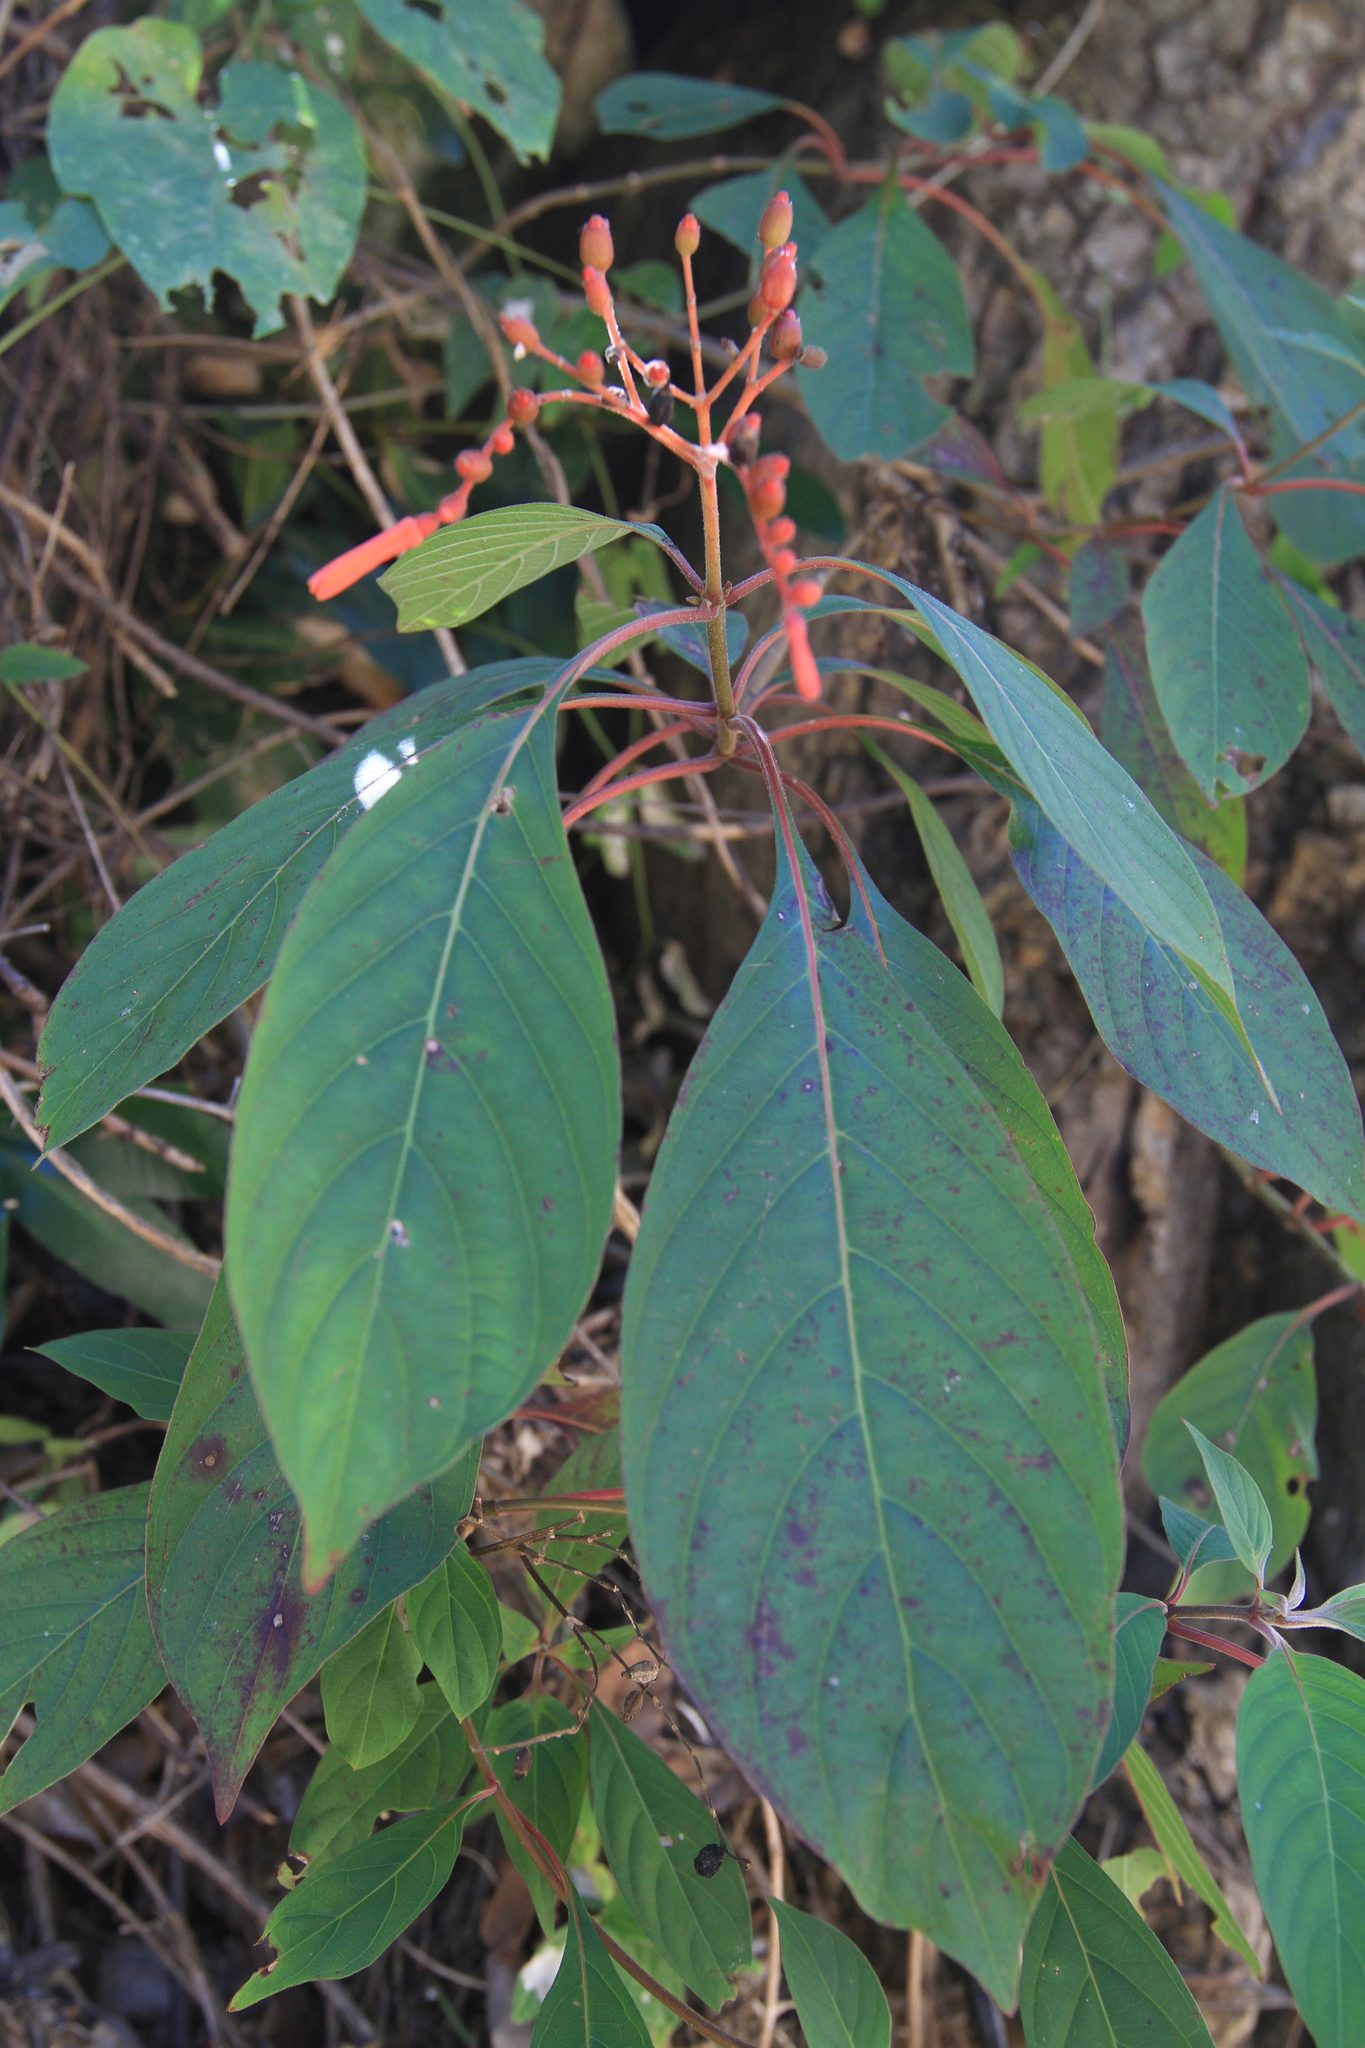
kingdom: Plantae
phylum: Tracheophyta
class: Magnoliopsida
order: Gentianales
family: Rubiaceae
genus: Hamelia
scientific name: Hamelia patens
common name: Redhead
